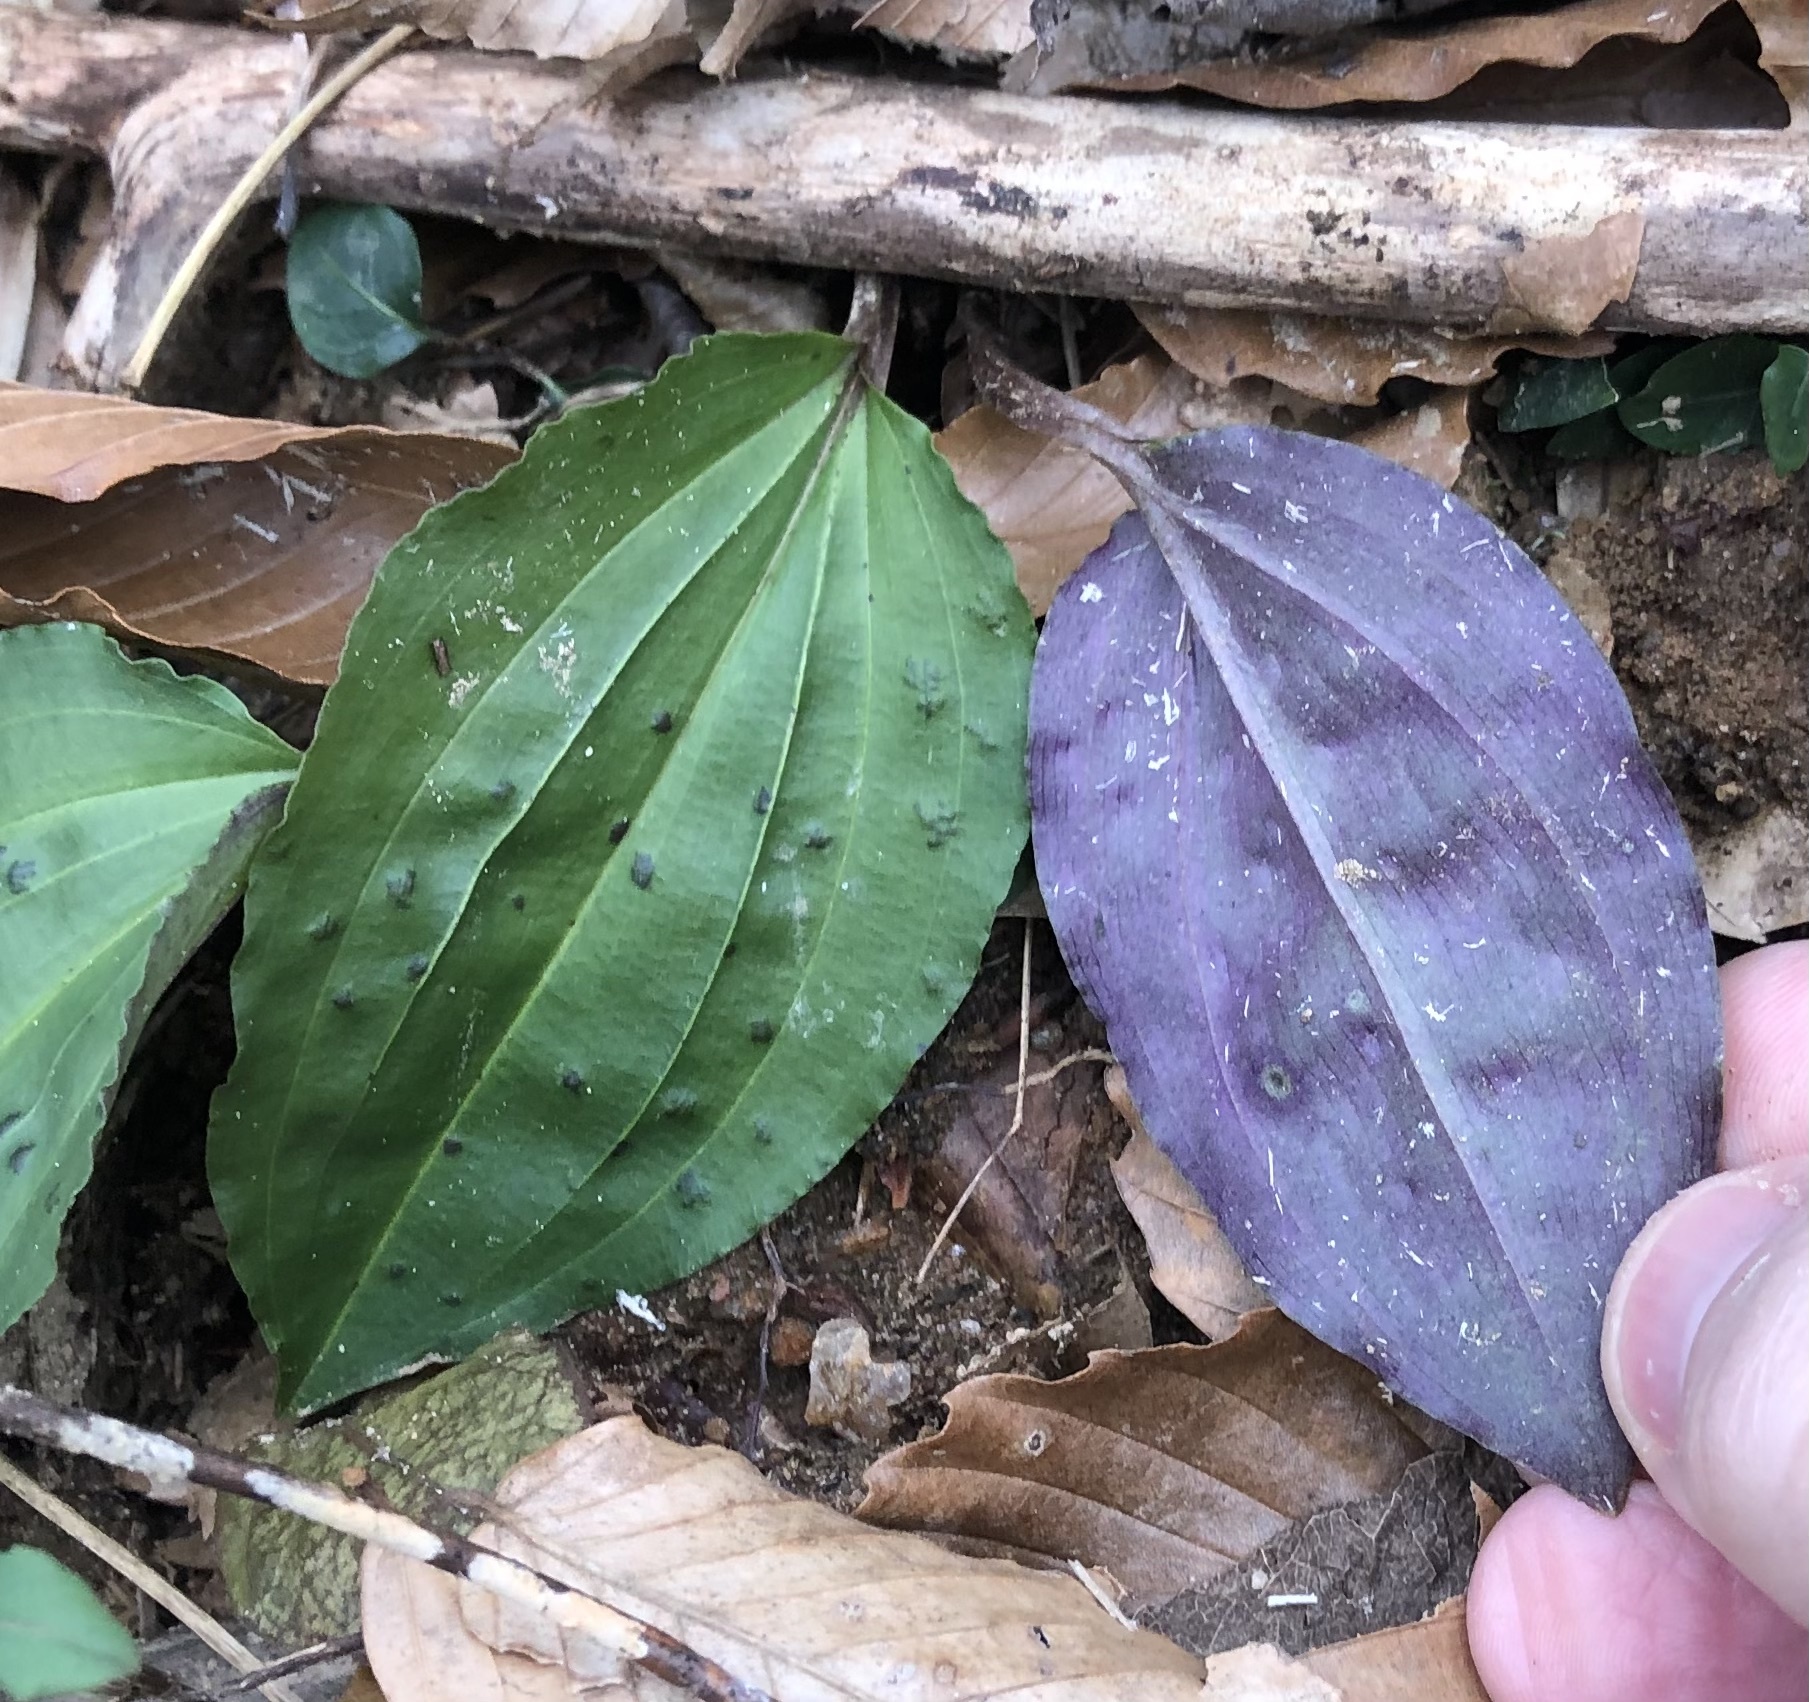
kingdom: Plantae
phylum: Tracheophyta
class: Liliopsida
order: Asparagales
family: Orchidaceae
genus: Tipularia
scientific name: Tipularia discolor
